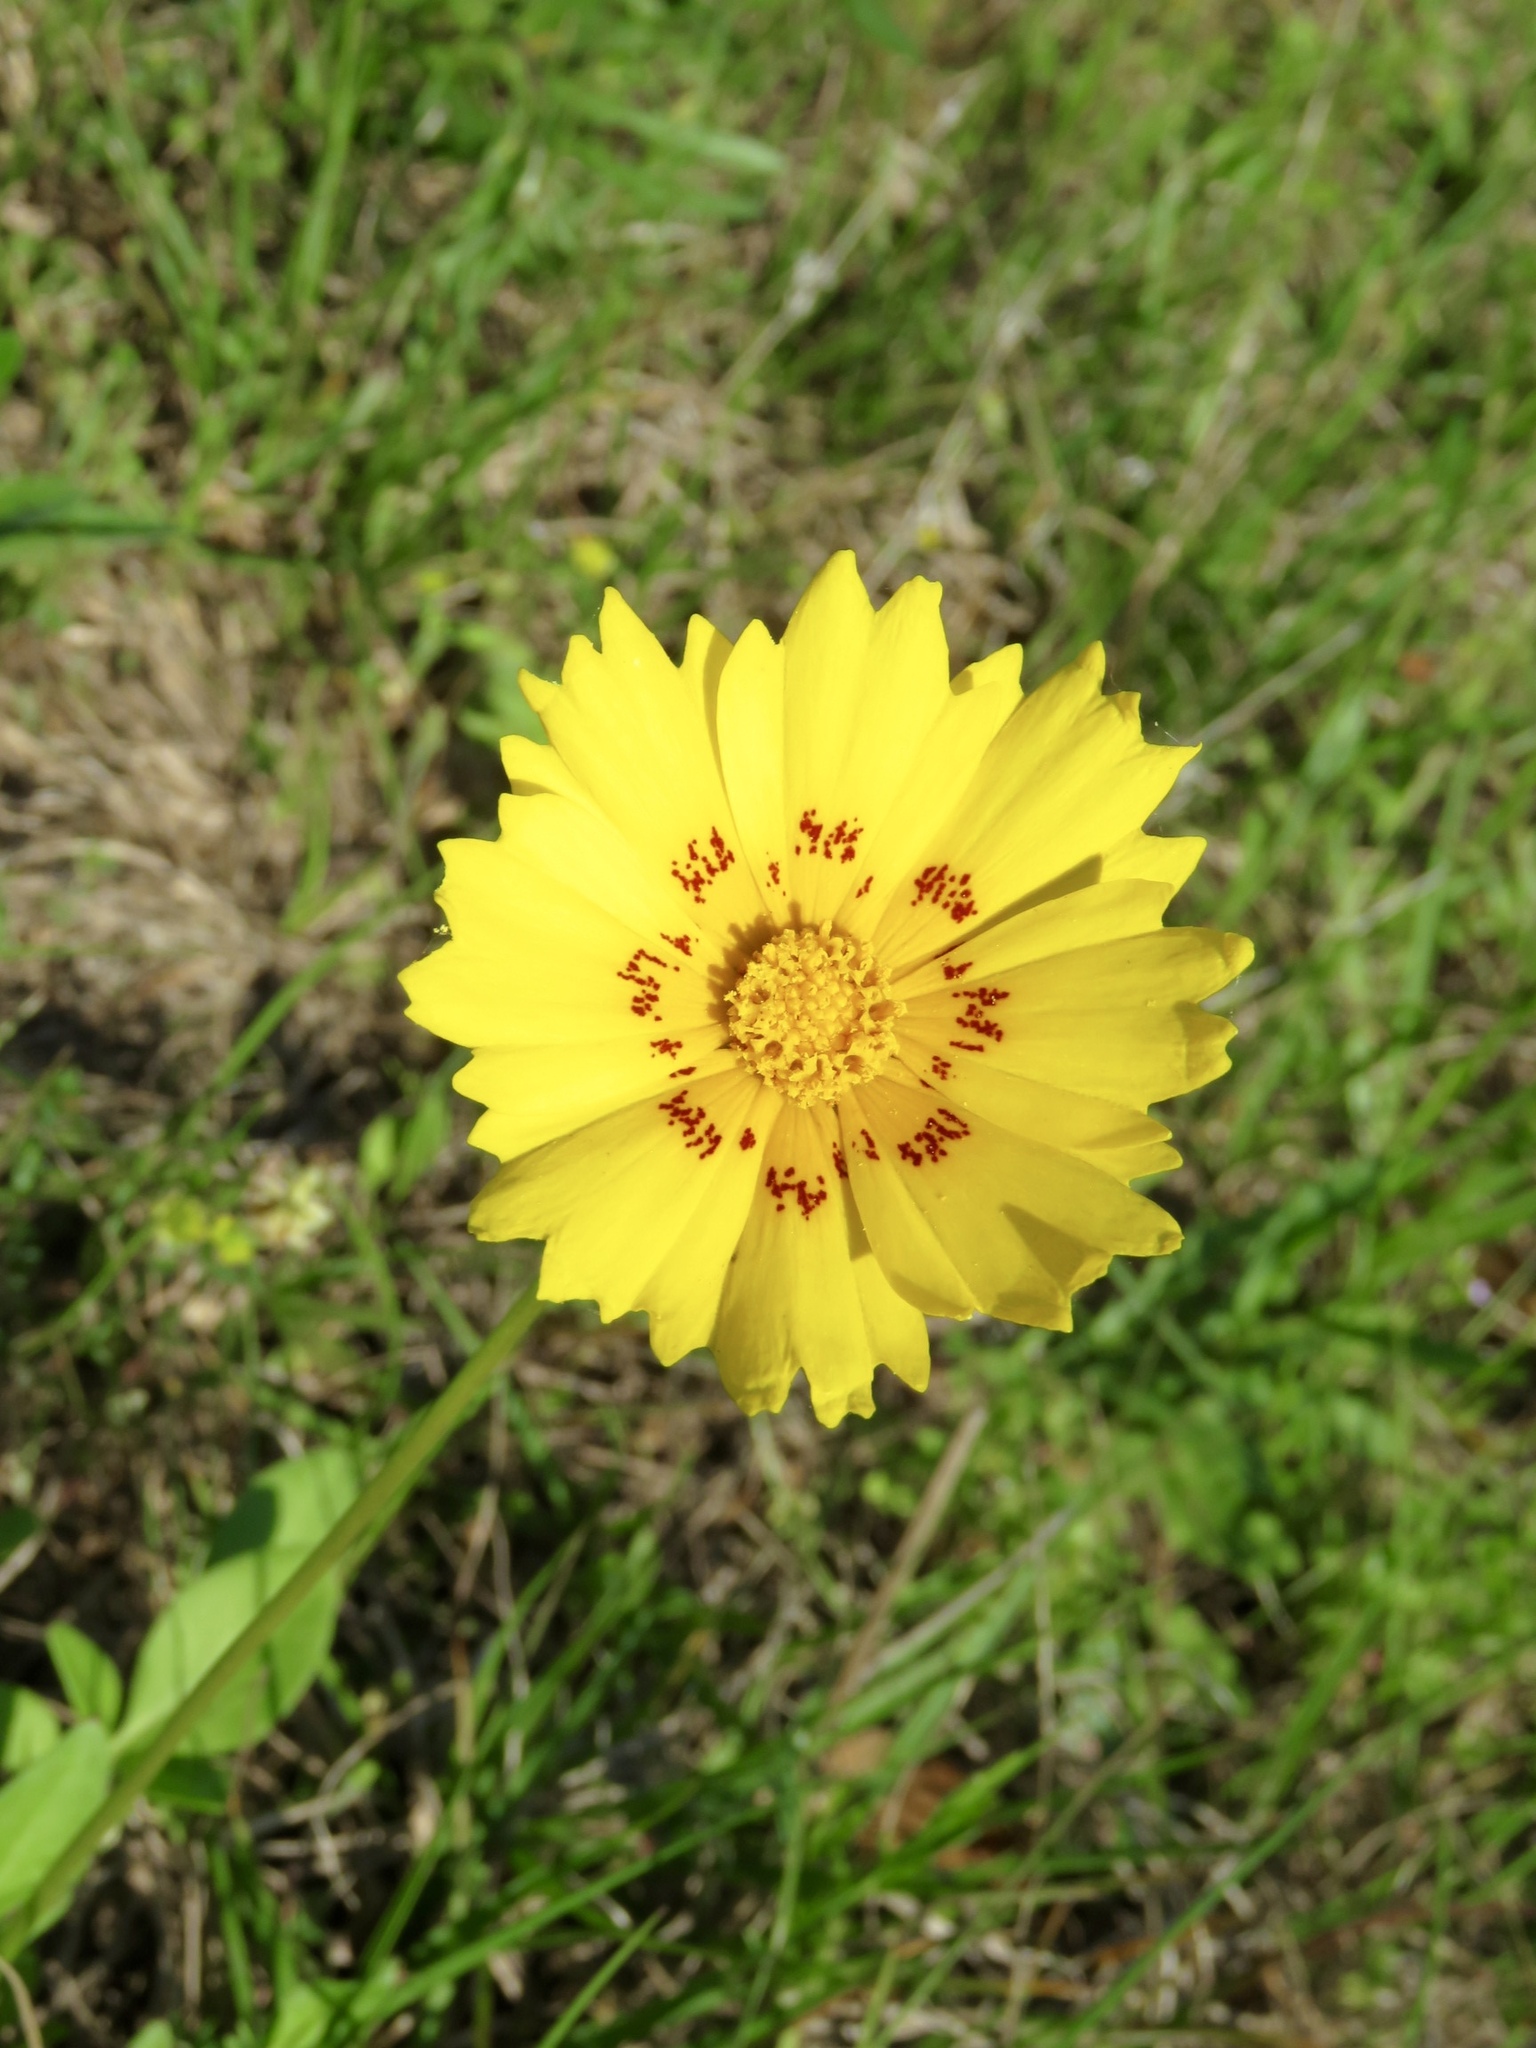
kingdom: Plantae
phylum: Tracheophyta
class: Magnoliopsida
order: Asterales
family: Asteraceae
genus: Coreopsis
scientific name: Coreopsis nuecensis
